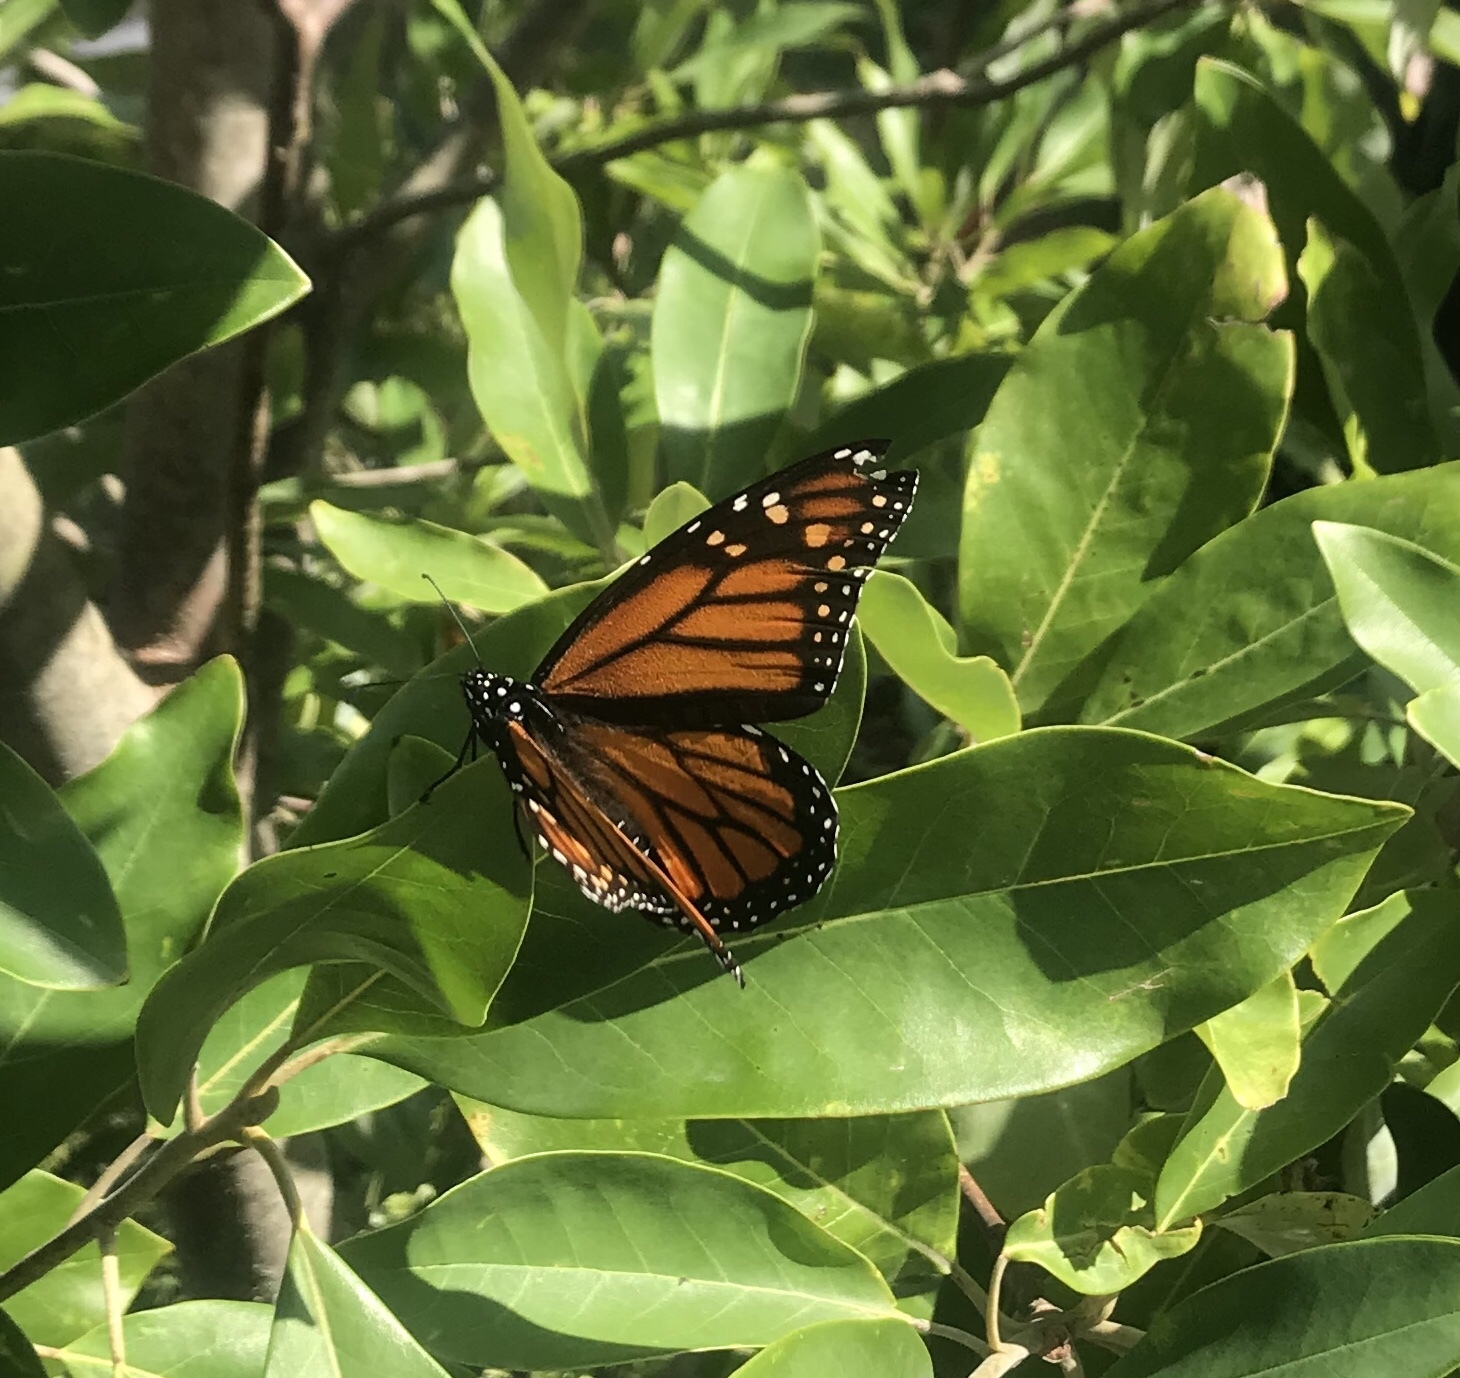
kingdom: Animalia
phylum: Arthropoda
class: Insecta
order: Lepidoptera
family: Nymphalidae
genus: Danaus
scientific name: Danaus plexippus
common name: Monarch
